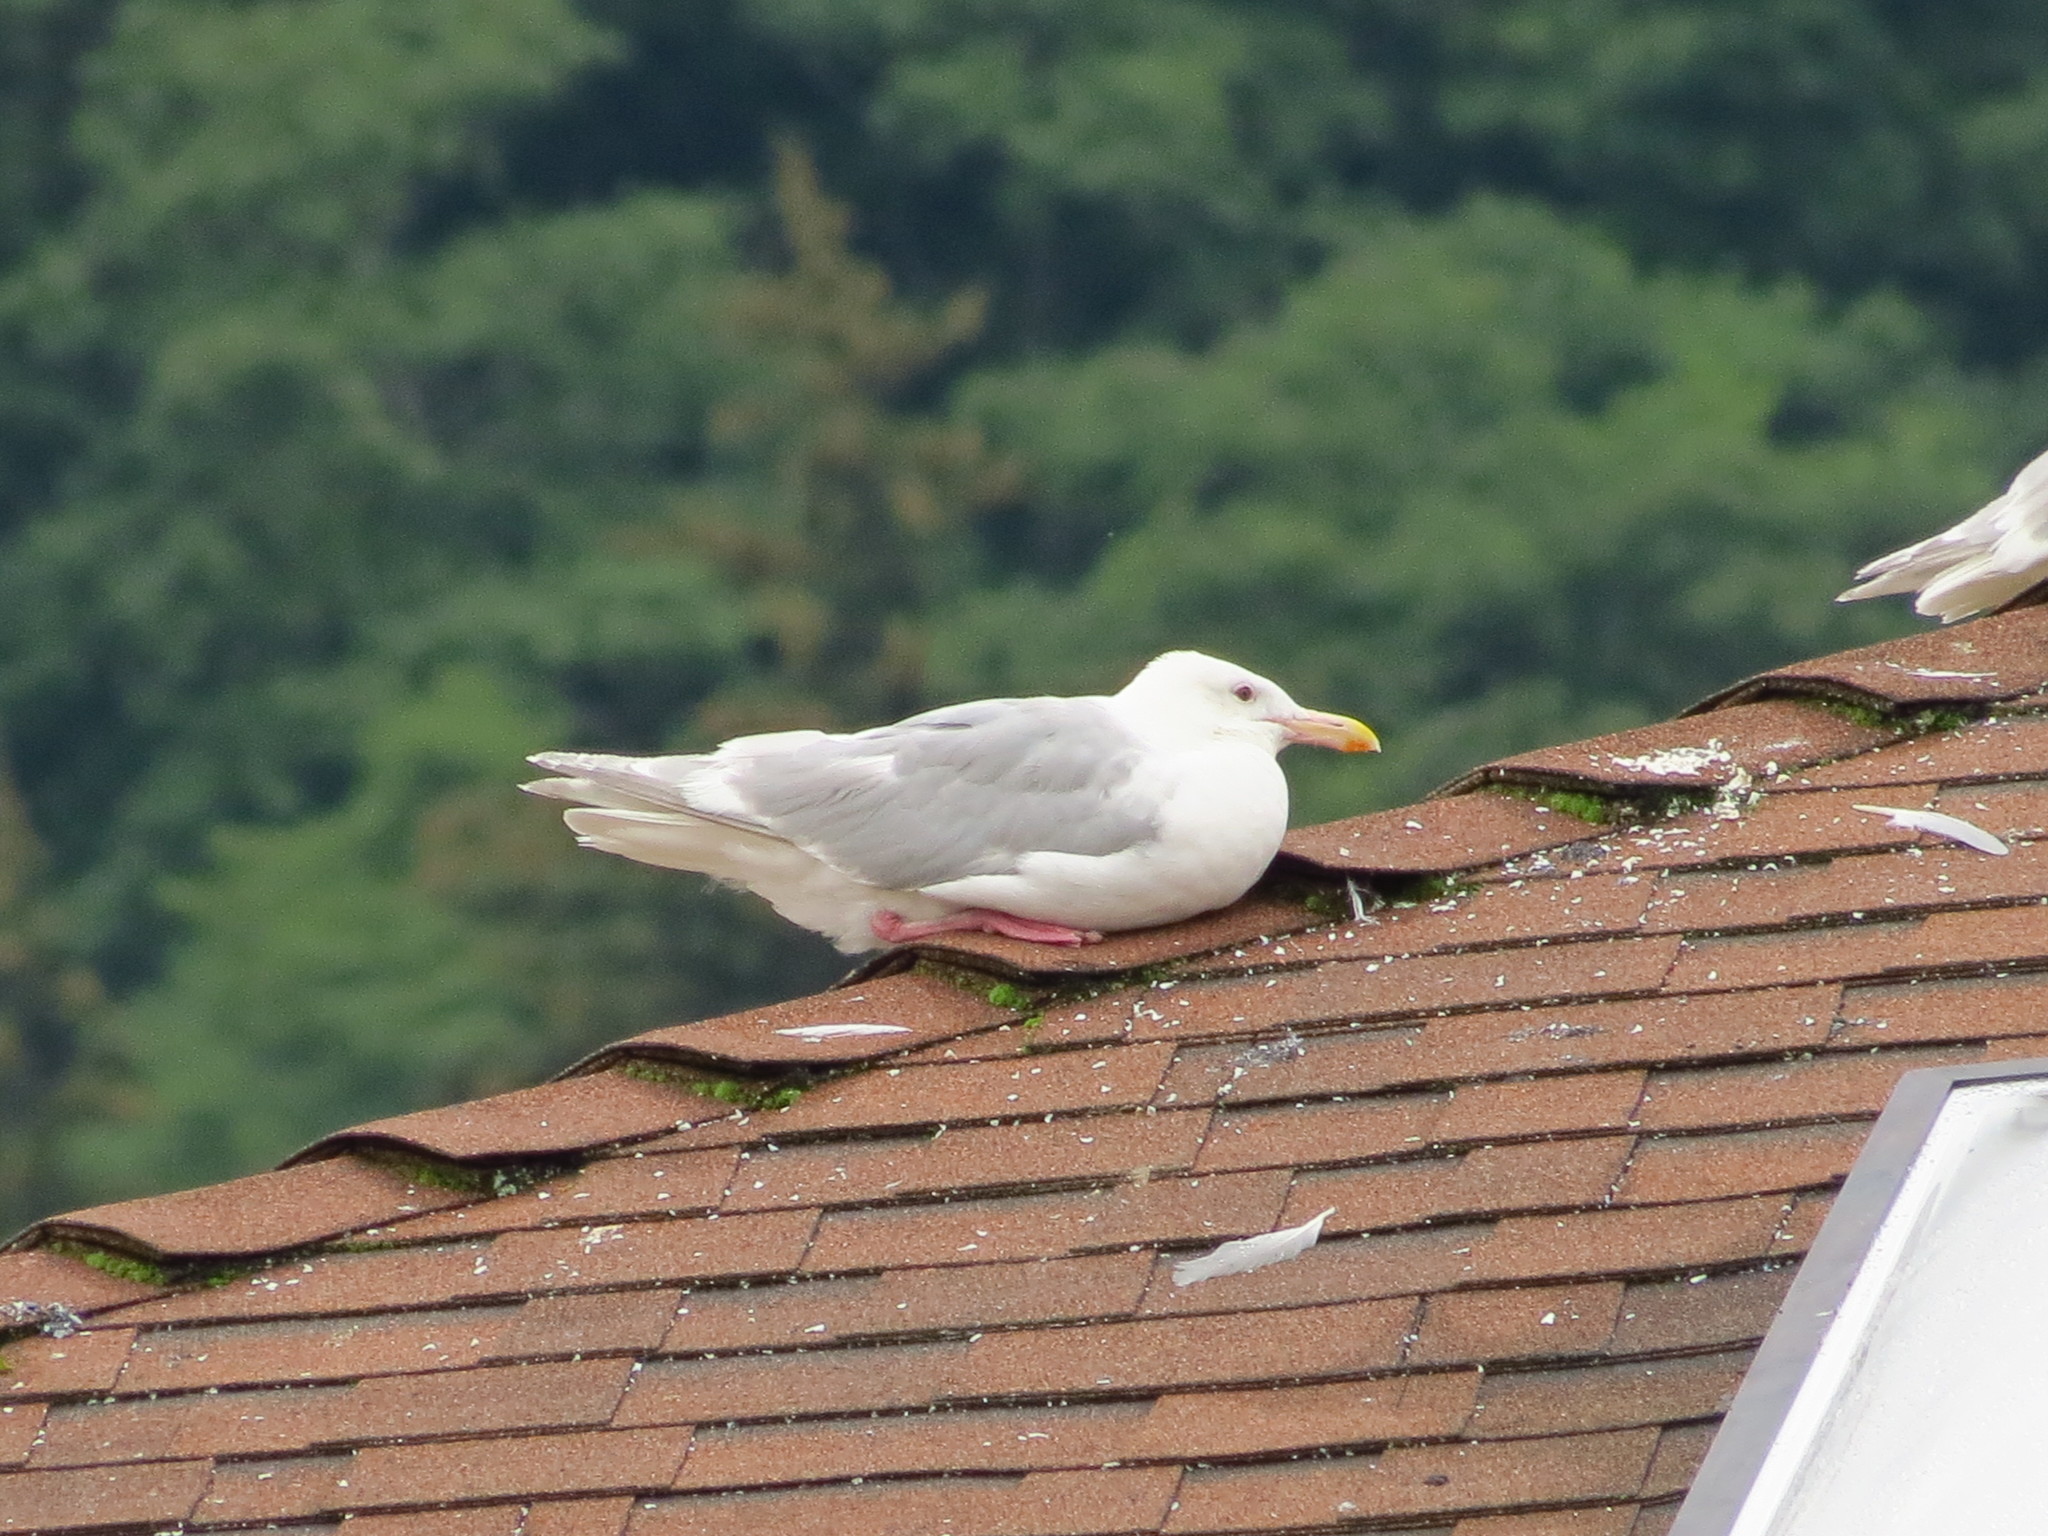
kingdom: Animalia
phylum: Chordata
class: Aves
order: Charadriiformes
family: Laridae
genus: Larus
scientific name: Larus glaucescens
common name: Glaucous-winged gull
